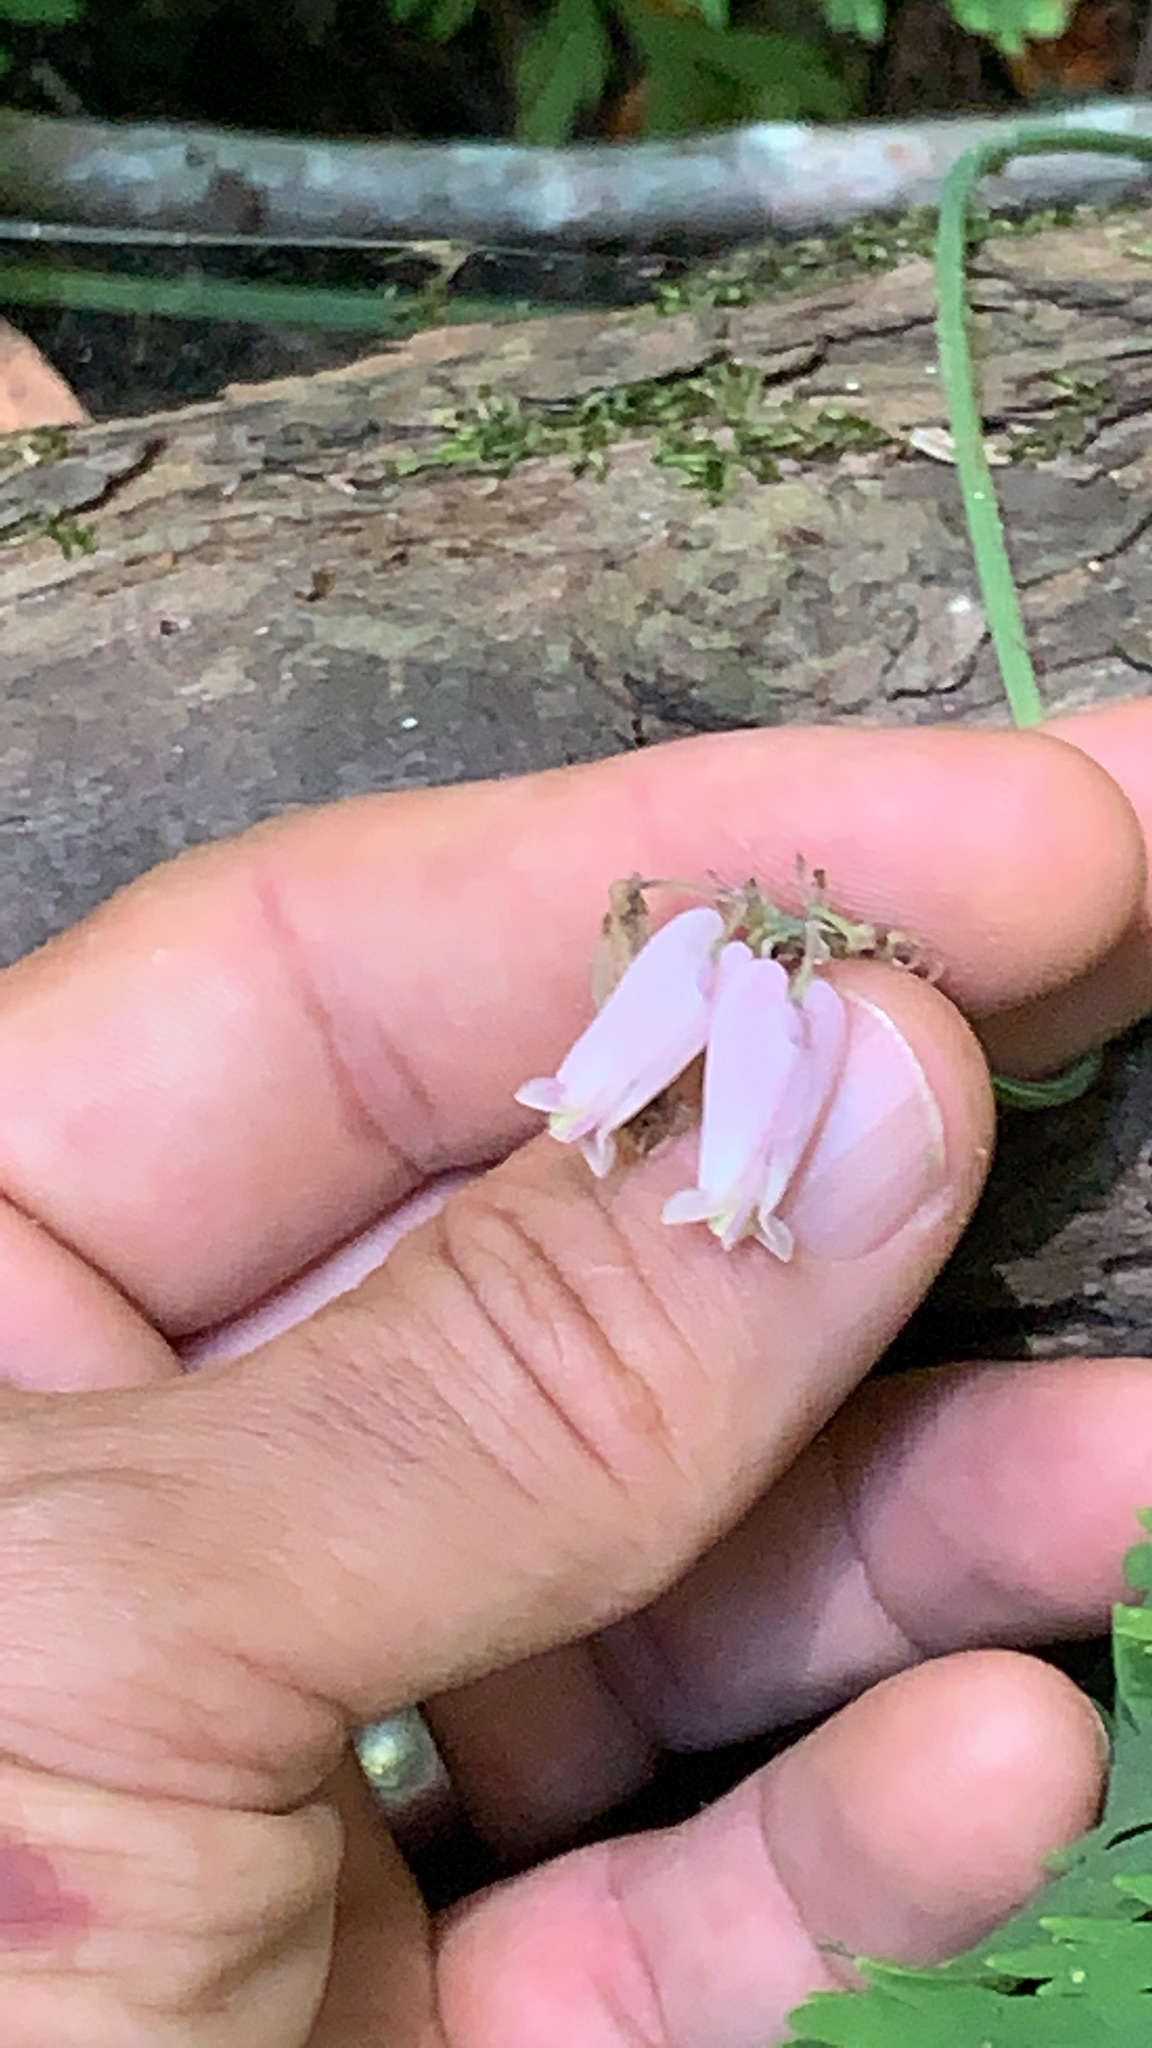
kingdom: Plantae
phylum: Tracheophyta
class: Magnoliopsida
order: Ranunculales
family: Papaveraceae
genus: Dicentra
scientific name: Dicentra formosa
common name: Bleeding-heart
